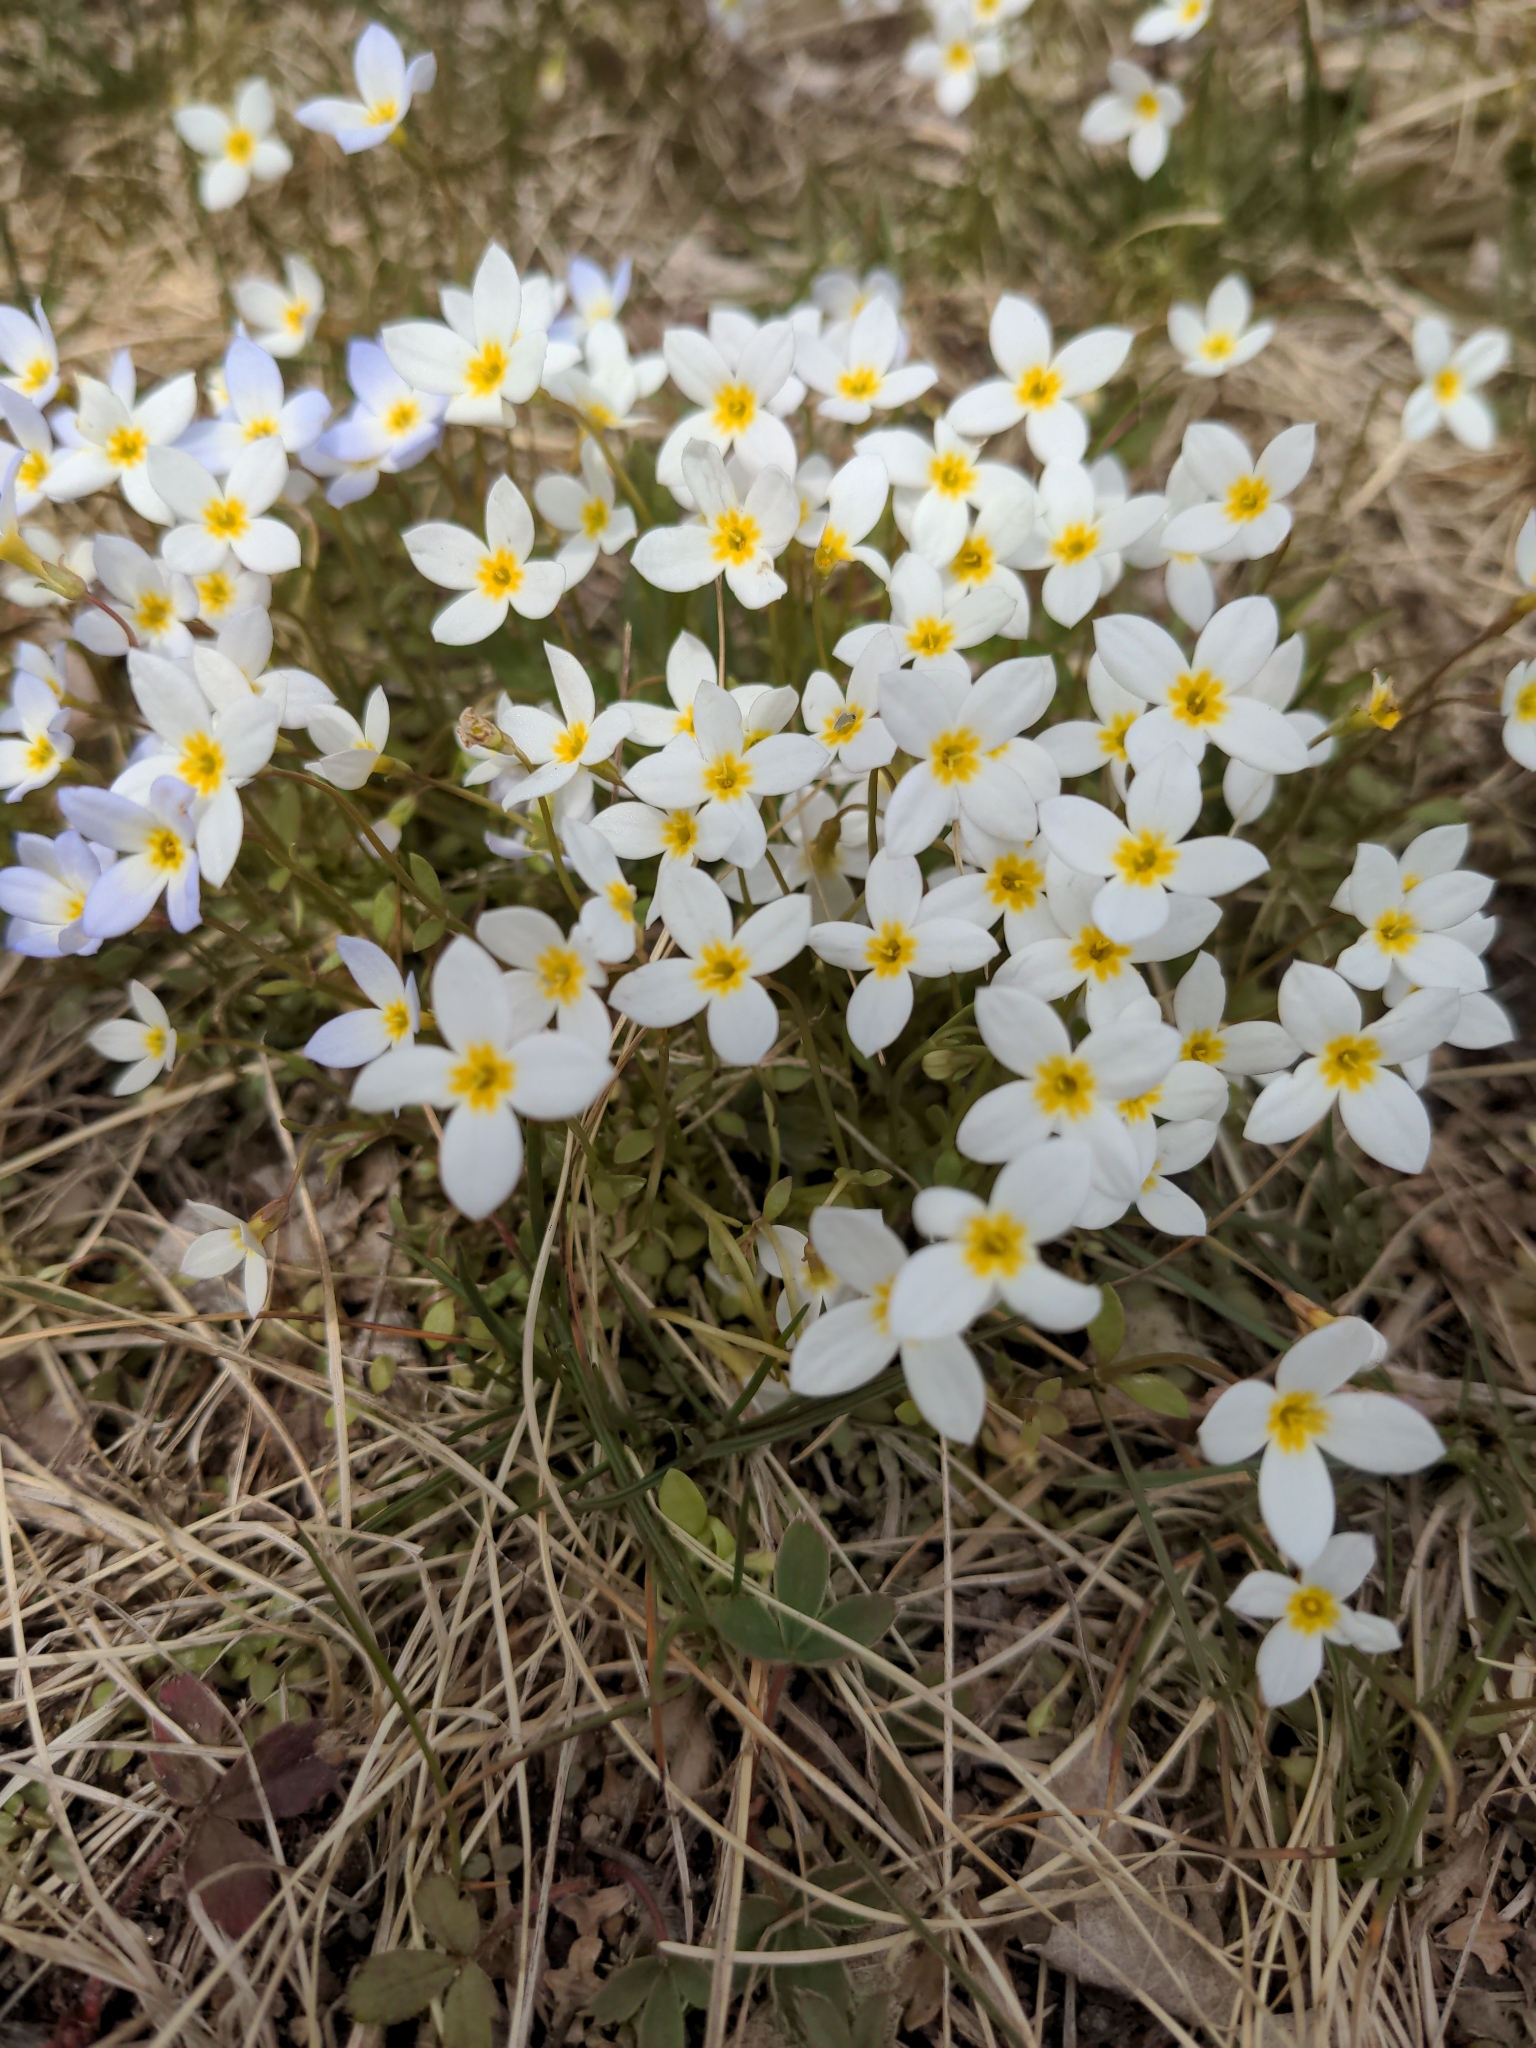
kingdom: Plantae
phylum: Tracheophyta
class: Magnoliopsida
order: Gentianales
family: Rubiaceae
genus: Houstonia
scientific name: Houstonia caerulea
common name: Bluets
